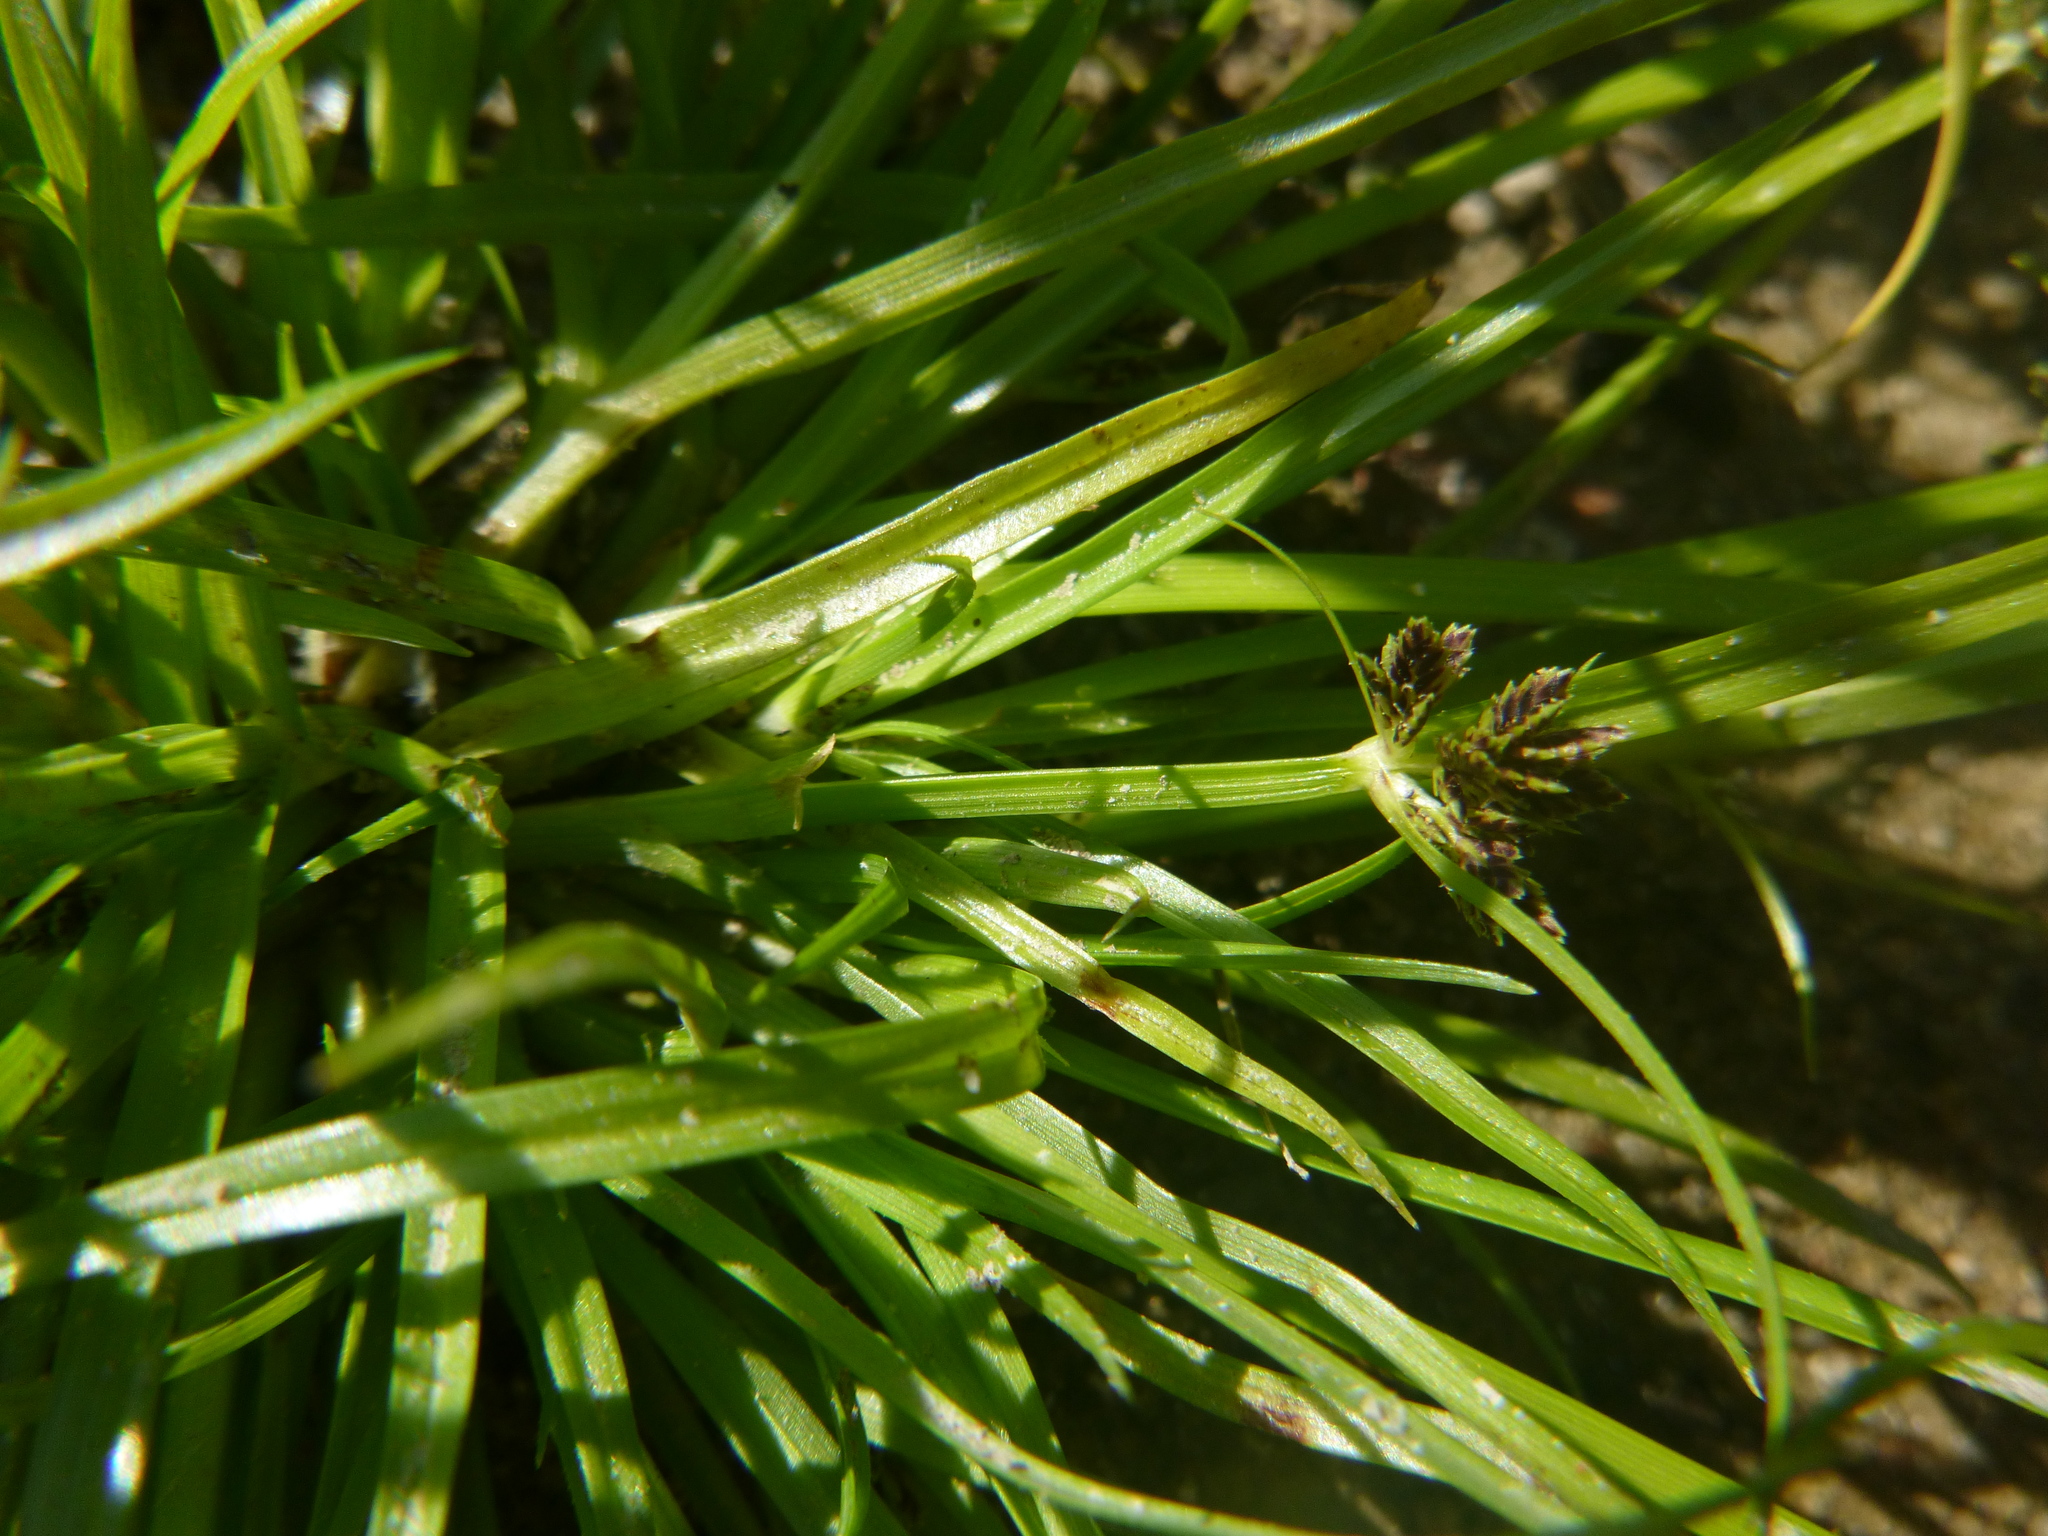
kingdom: Plantae
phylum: Tracheophyta
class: Liliopsida
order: Poales
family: Cyperaceae
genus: Cyperus
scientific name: Cyperus fuscus
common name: Brown galingale
